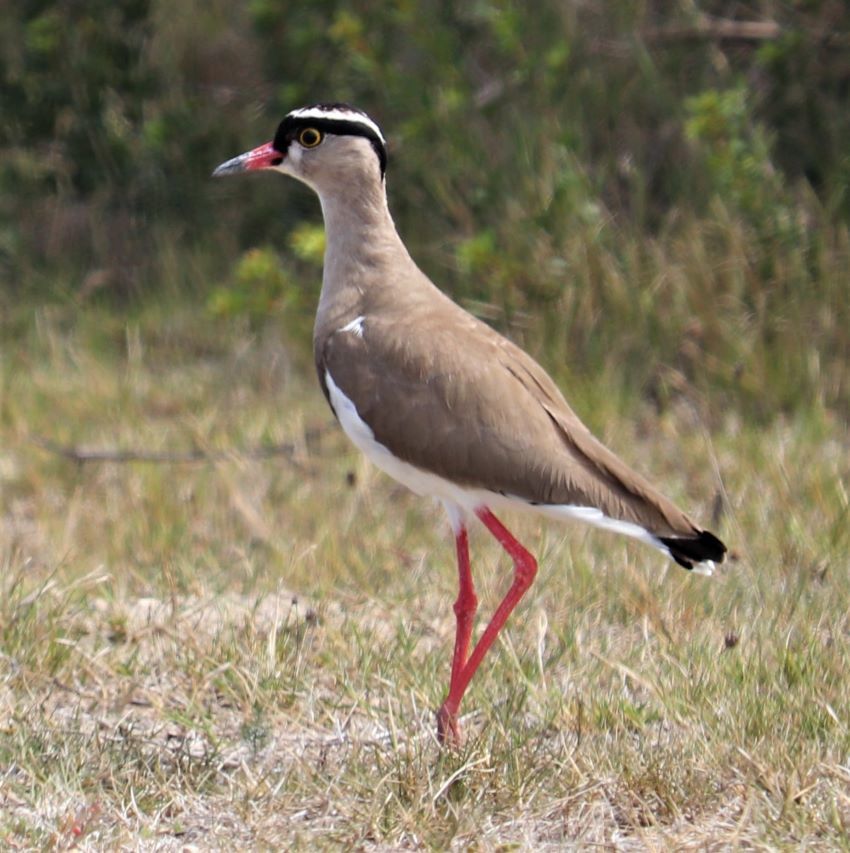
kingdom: Animalia
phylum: Chordata
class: Aves
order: Charadriiformes
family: Charadriidae
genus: Vanellus
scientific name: Vanellus coronatus
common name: Crowned lapwing
